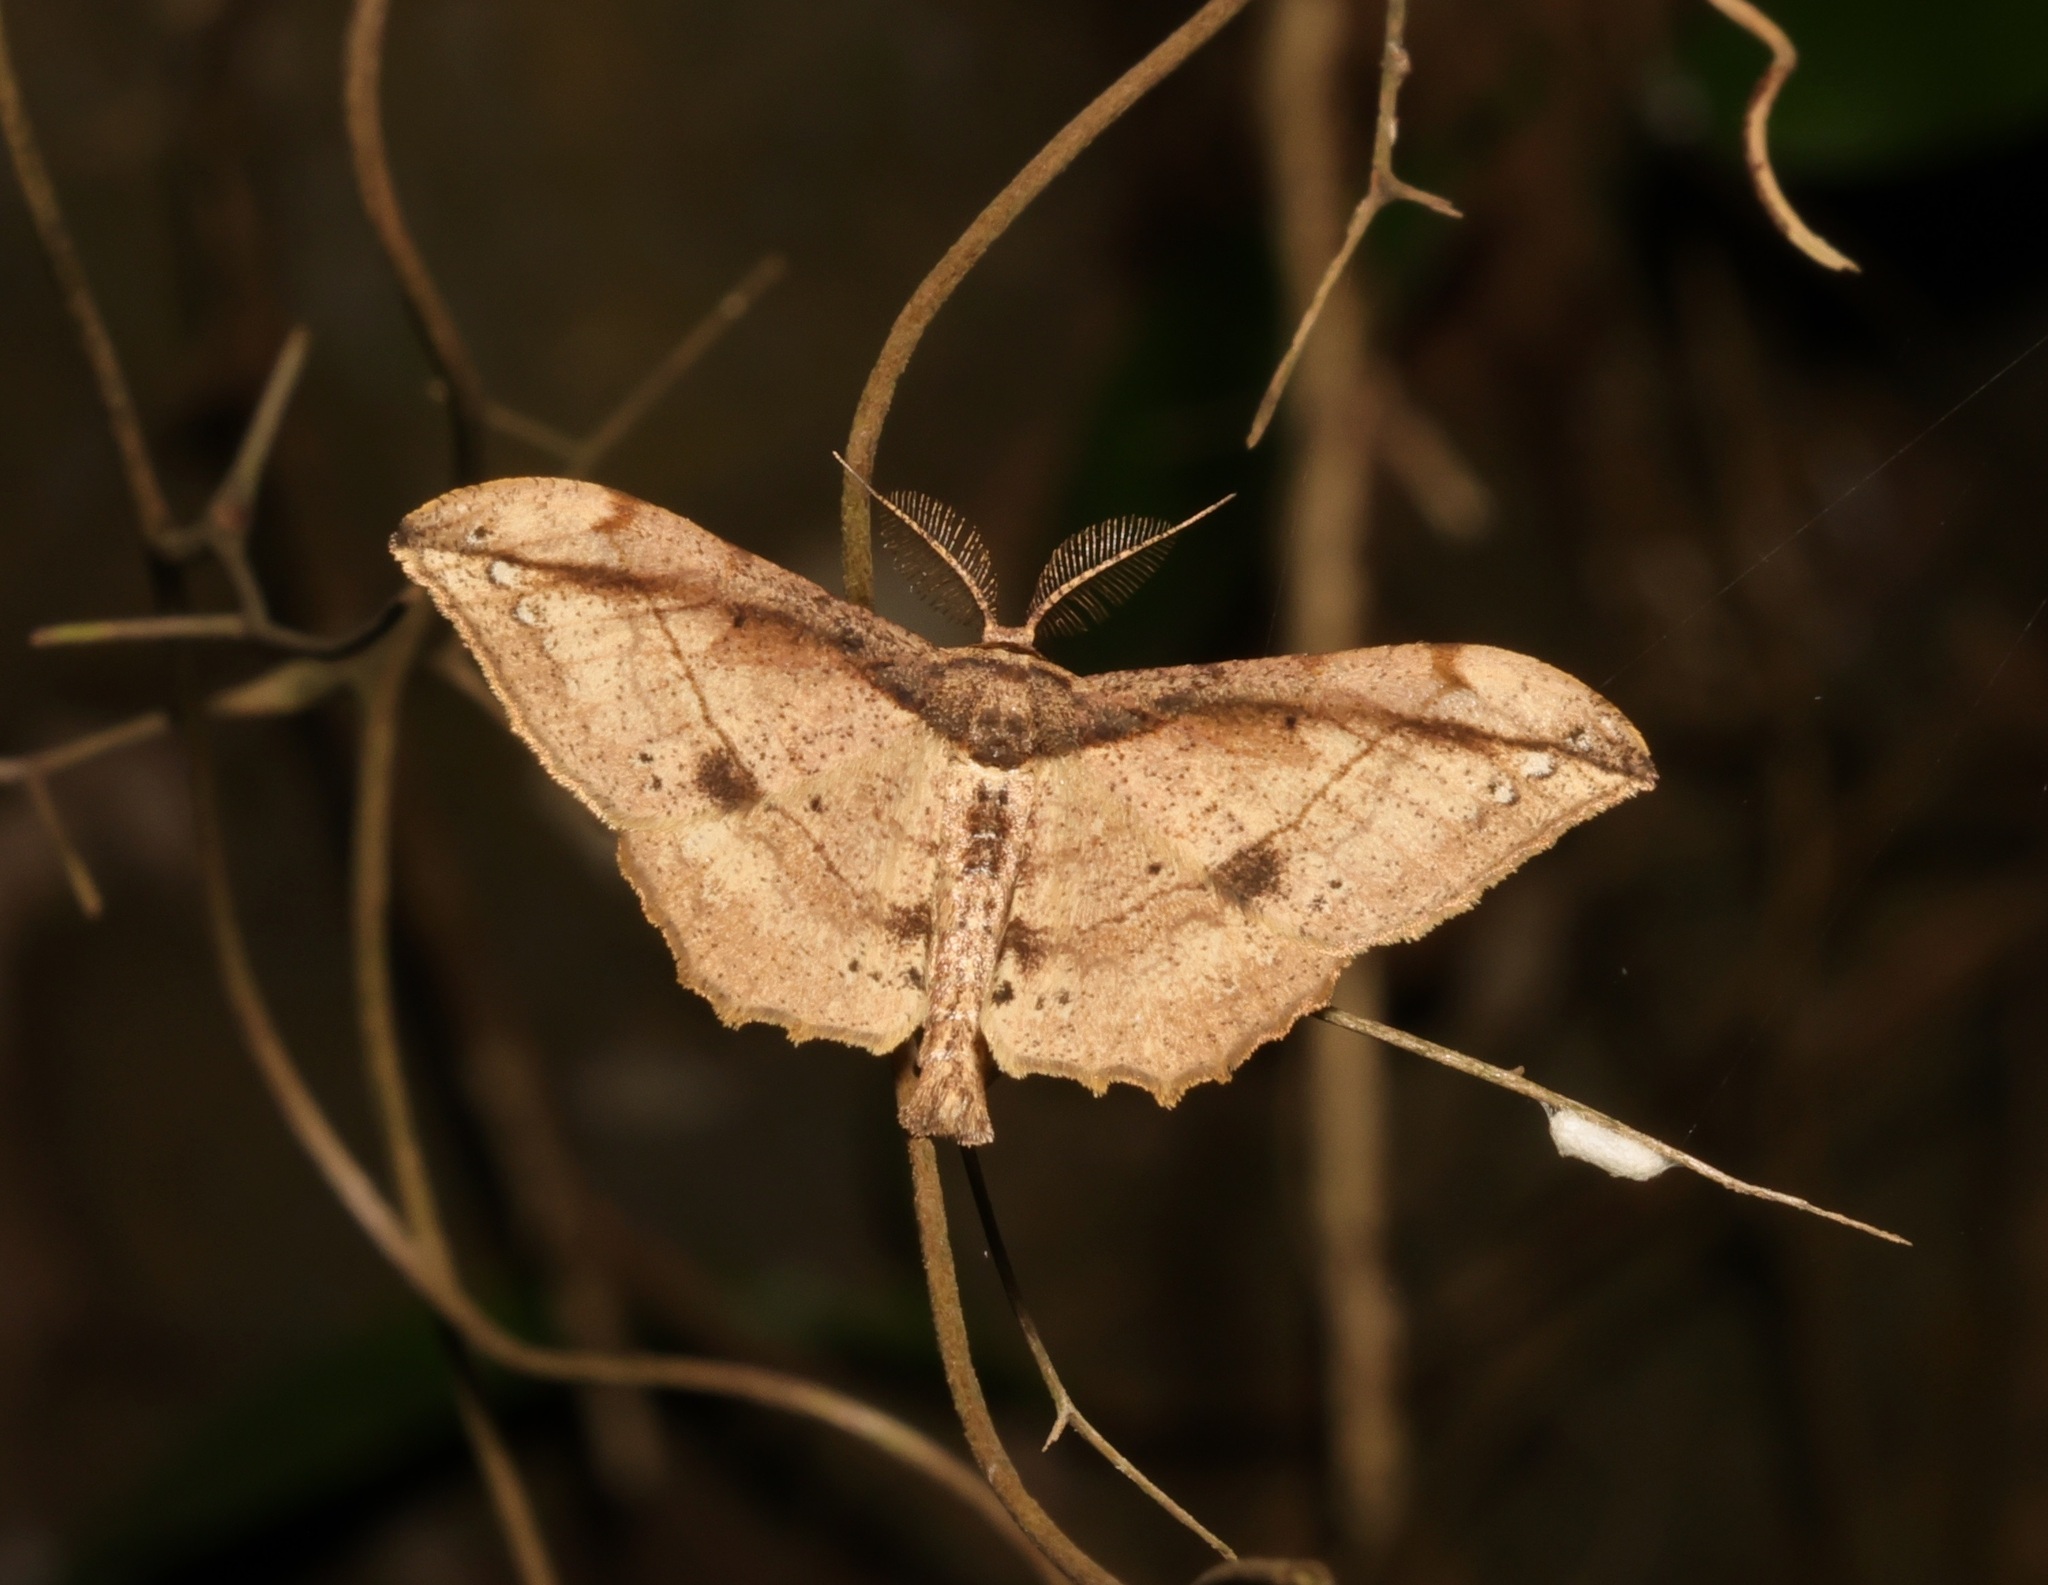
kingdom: Animalia
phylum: Arthropoda
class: Insecta
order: Lepidoptera
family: Geometridae
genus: Hyposidra
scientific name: Hyposidra infixaria
